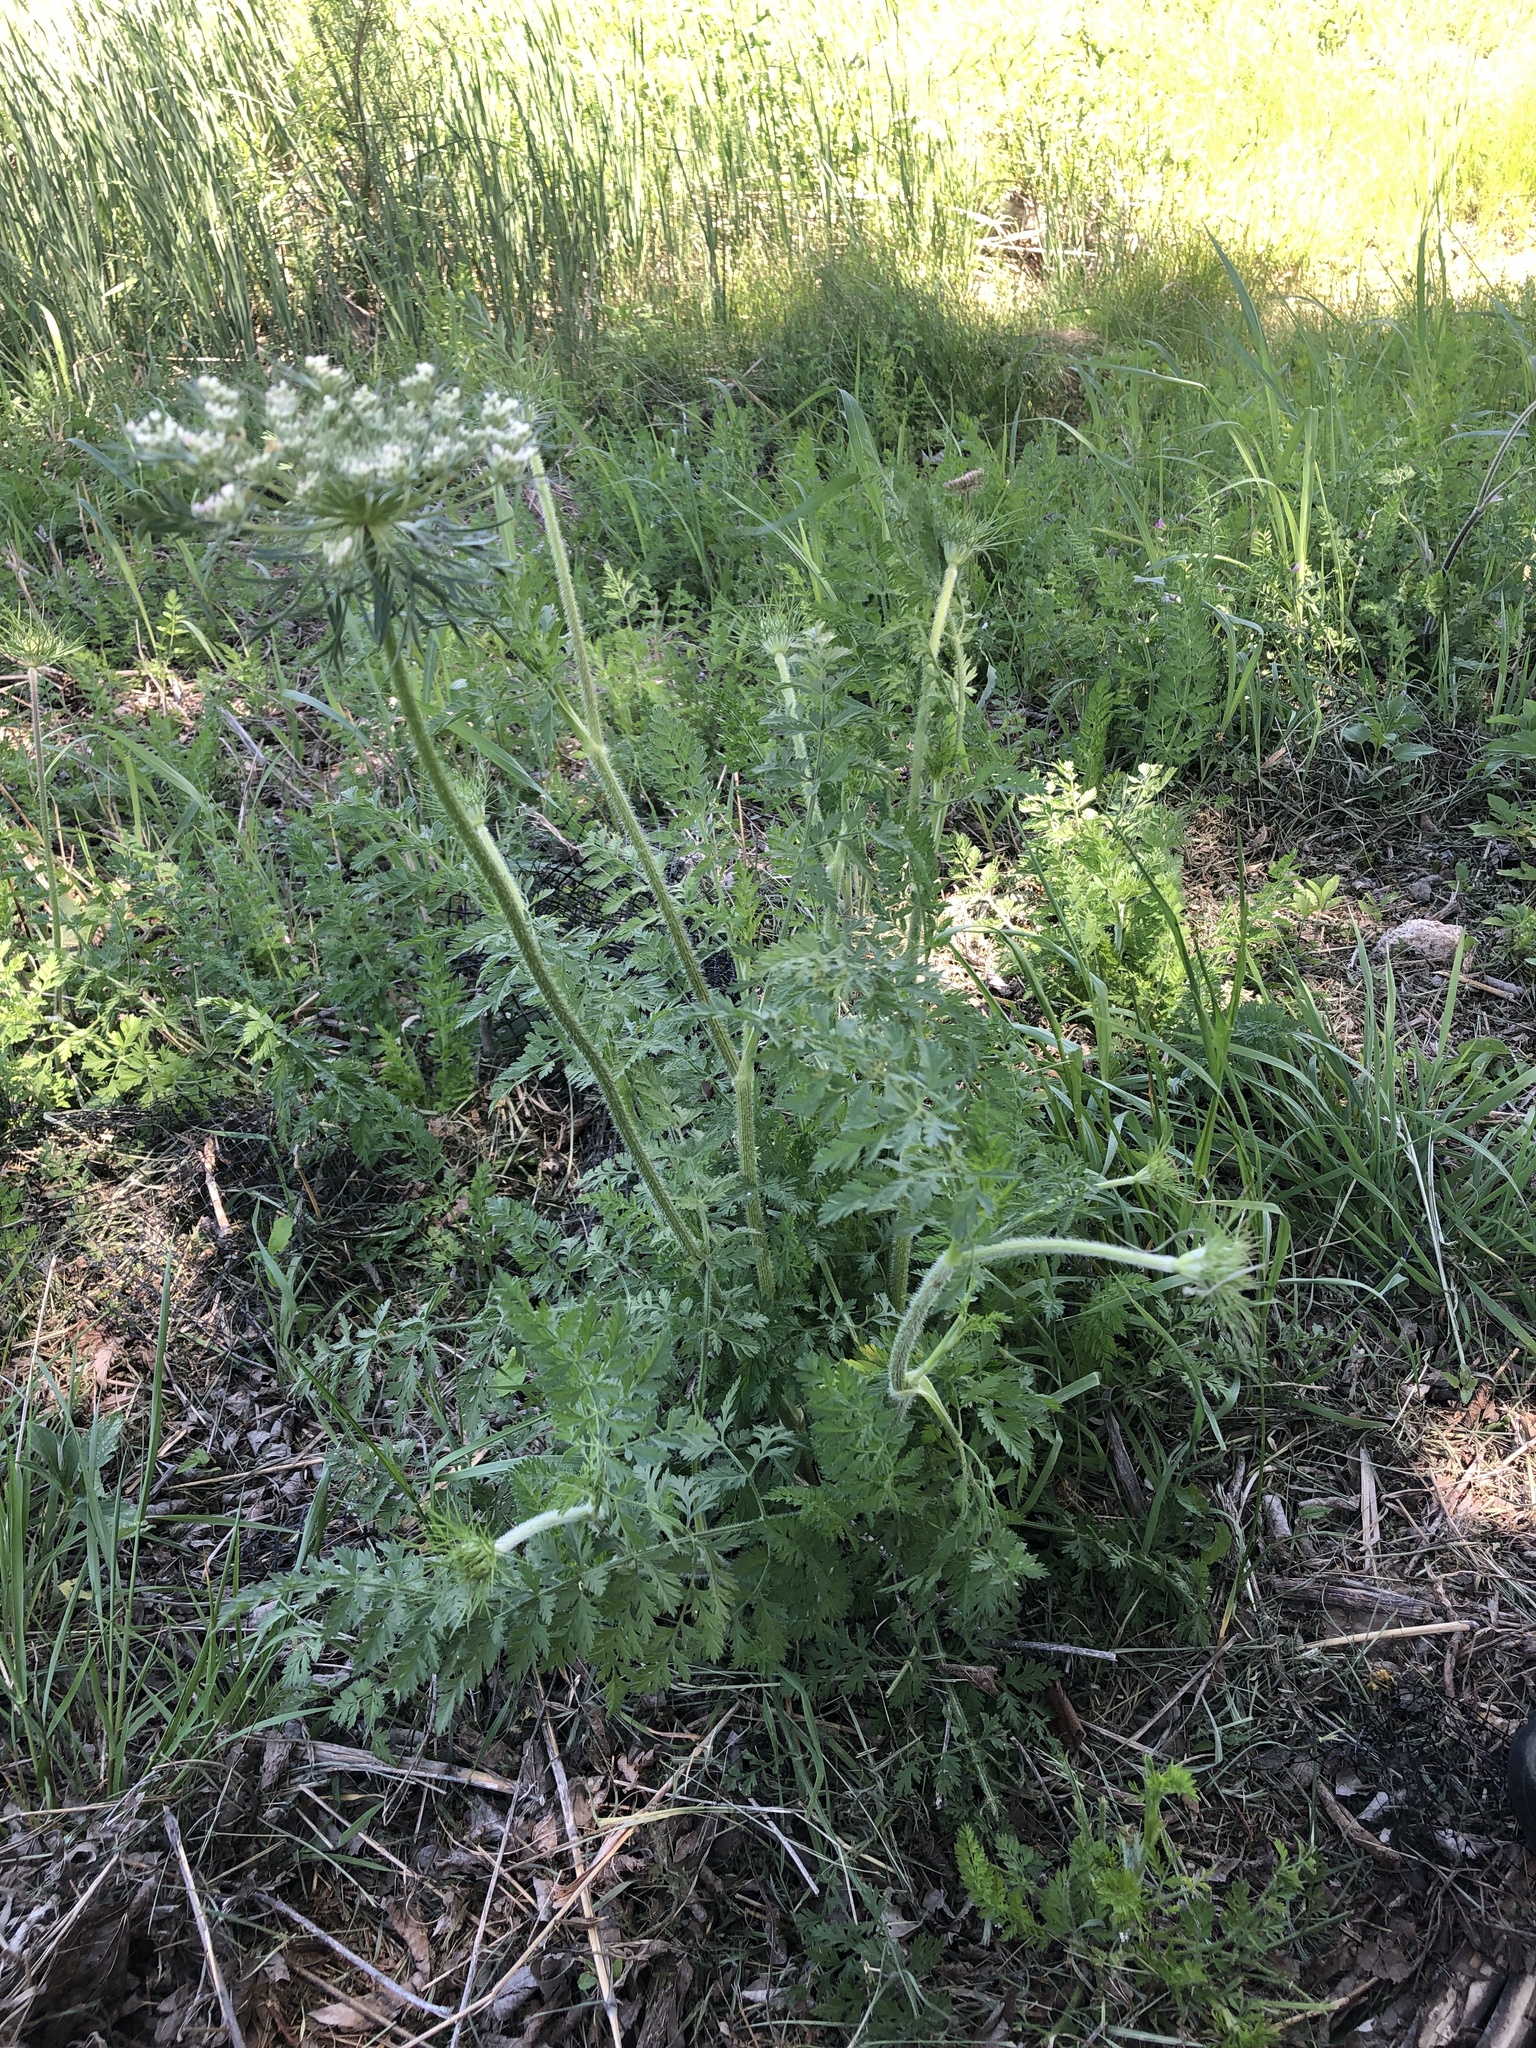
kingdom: Plantae
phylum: Tracheophyta
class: Magnoliopsida
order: Apiales
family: Apiaceae
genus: Daucus
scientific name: Daucus carota
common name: Wild carrot
